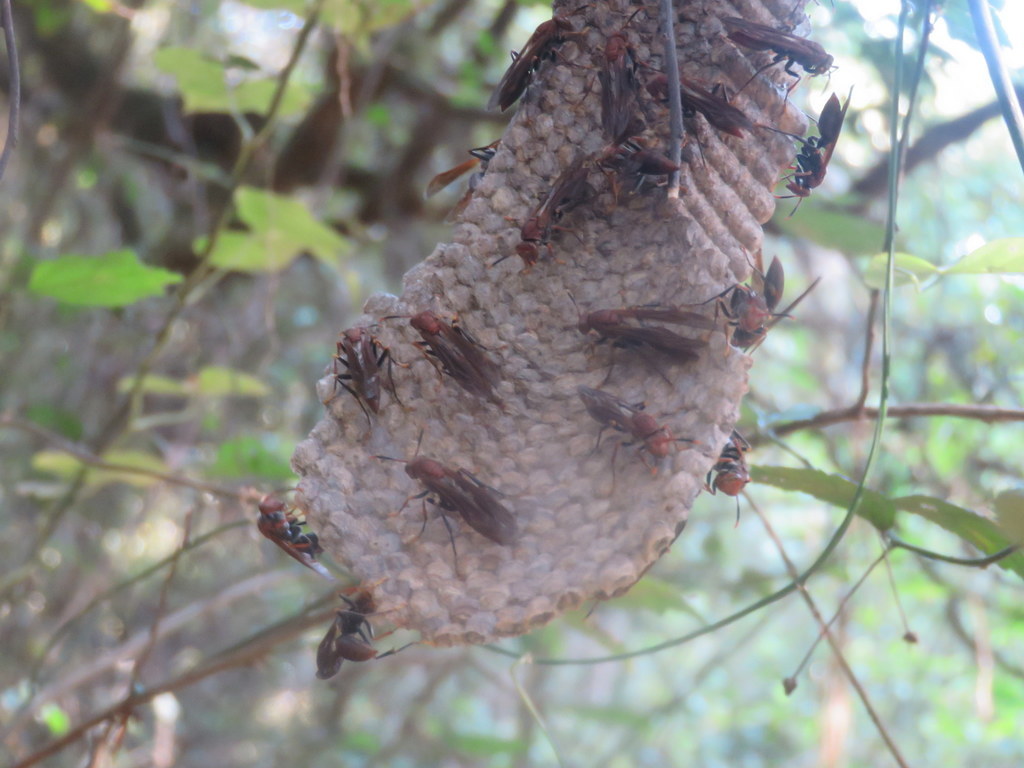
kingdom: Animalia
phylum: Arthropoda
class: Insecta
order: Hymenoptera
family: Pompilidae
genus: Aphanilopterus
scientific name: Aphanilopterus
